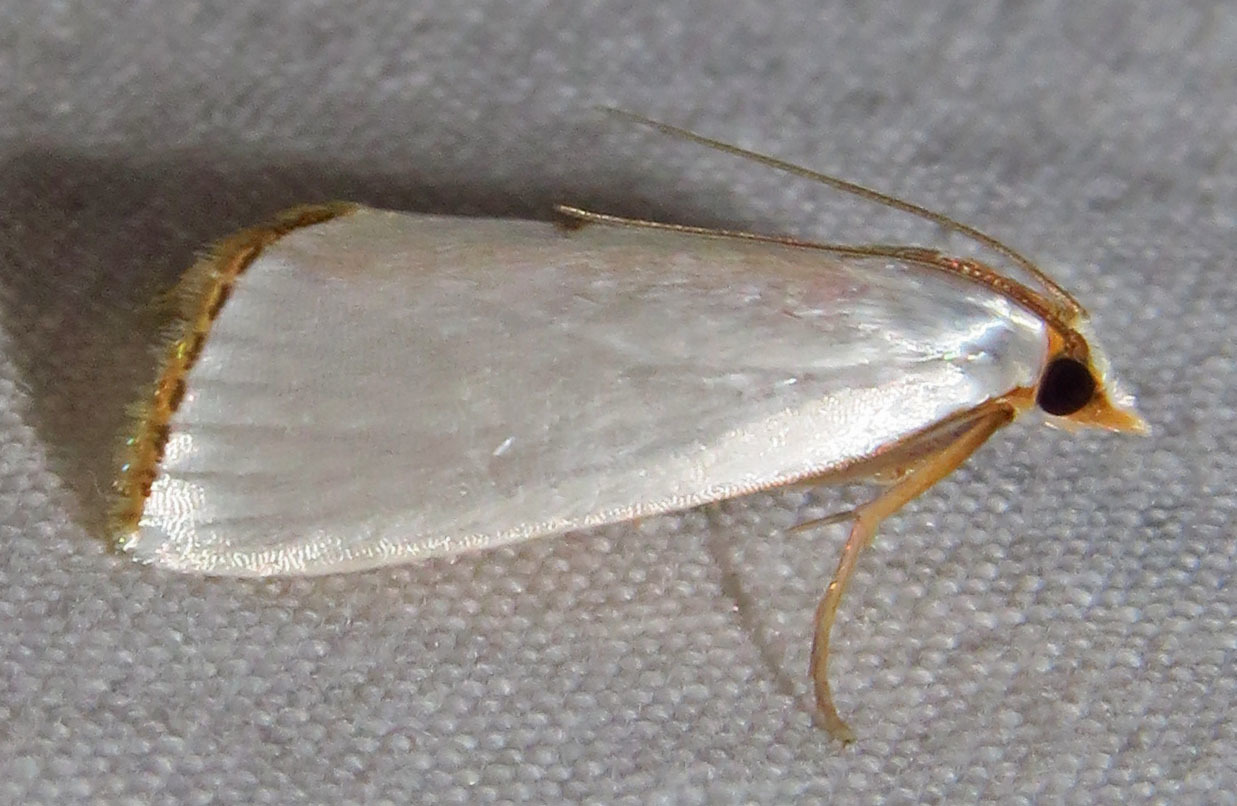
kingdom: Animalia
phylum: Arthropoda
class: Insecta
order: Lepidoptera
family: Crambidae
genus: Argyria
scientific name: Argyria nivalis
